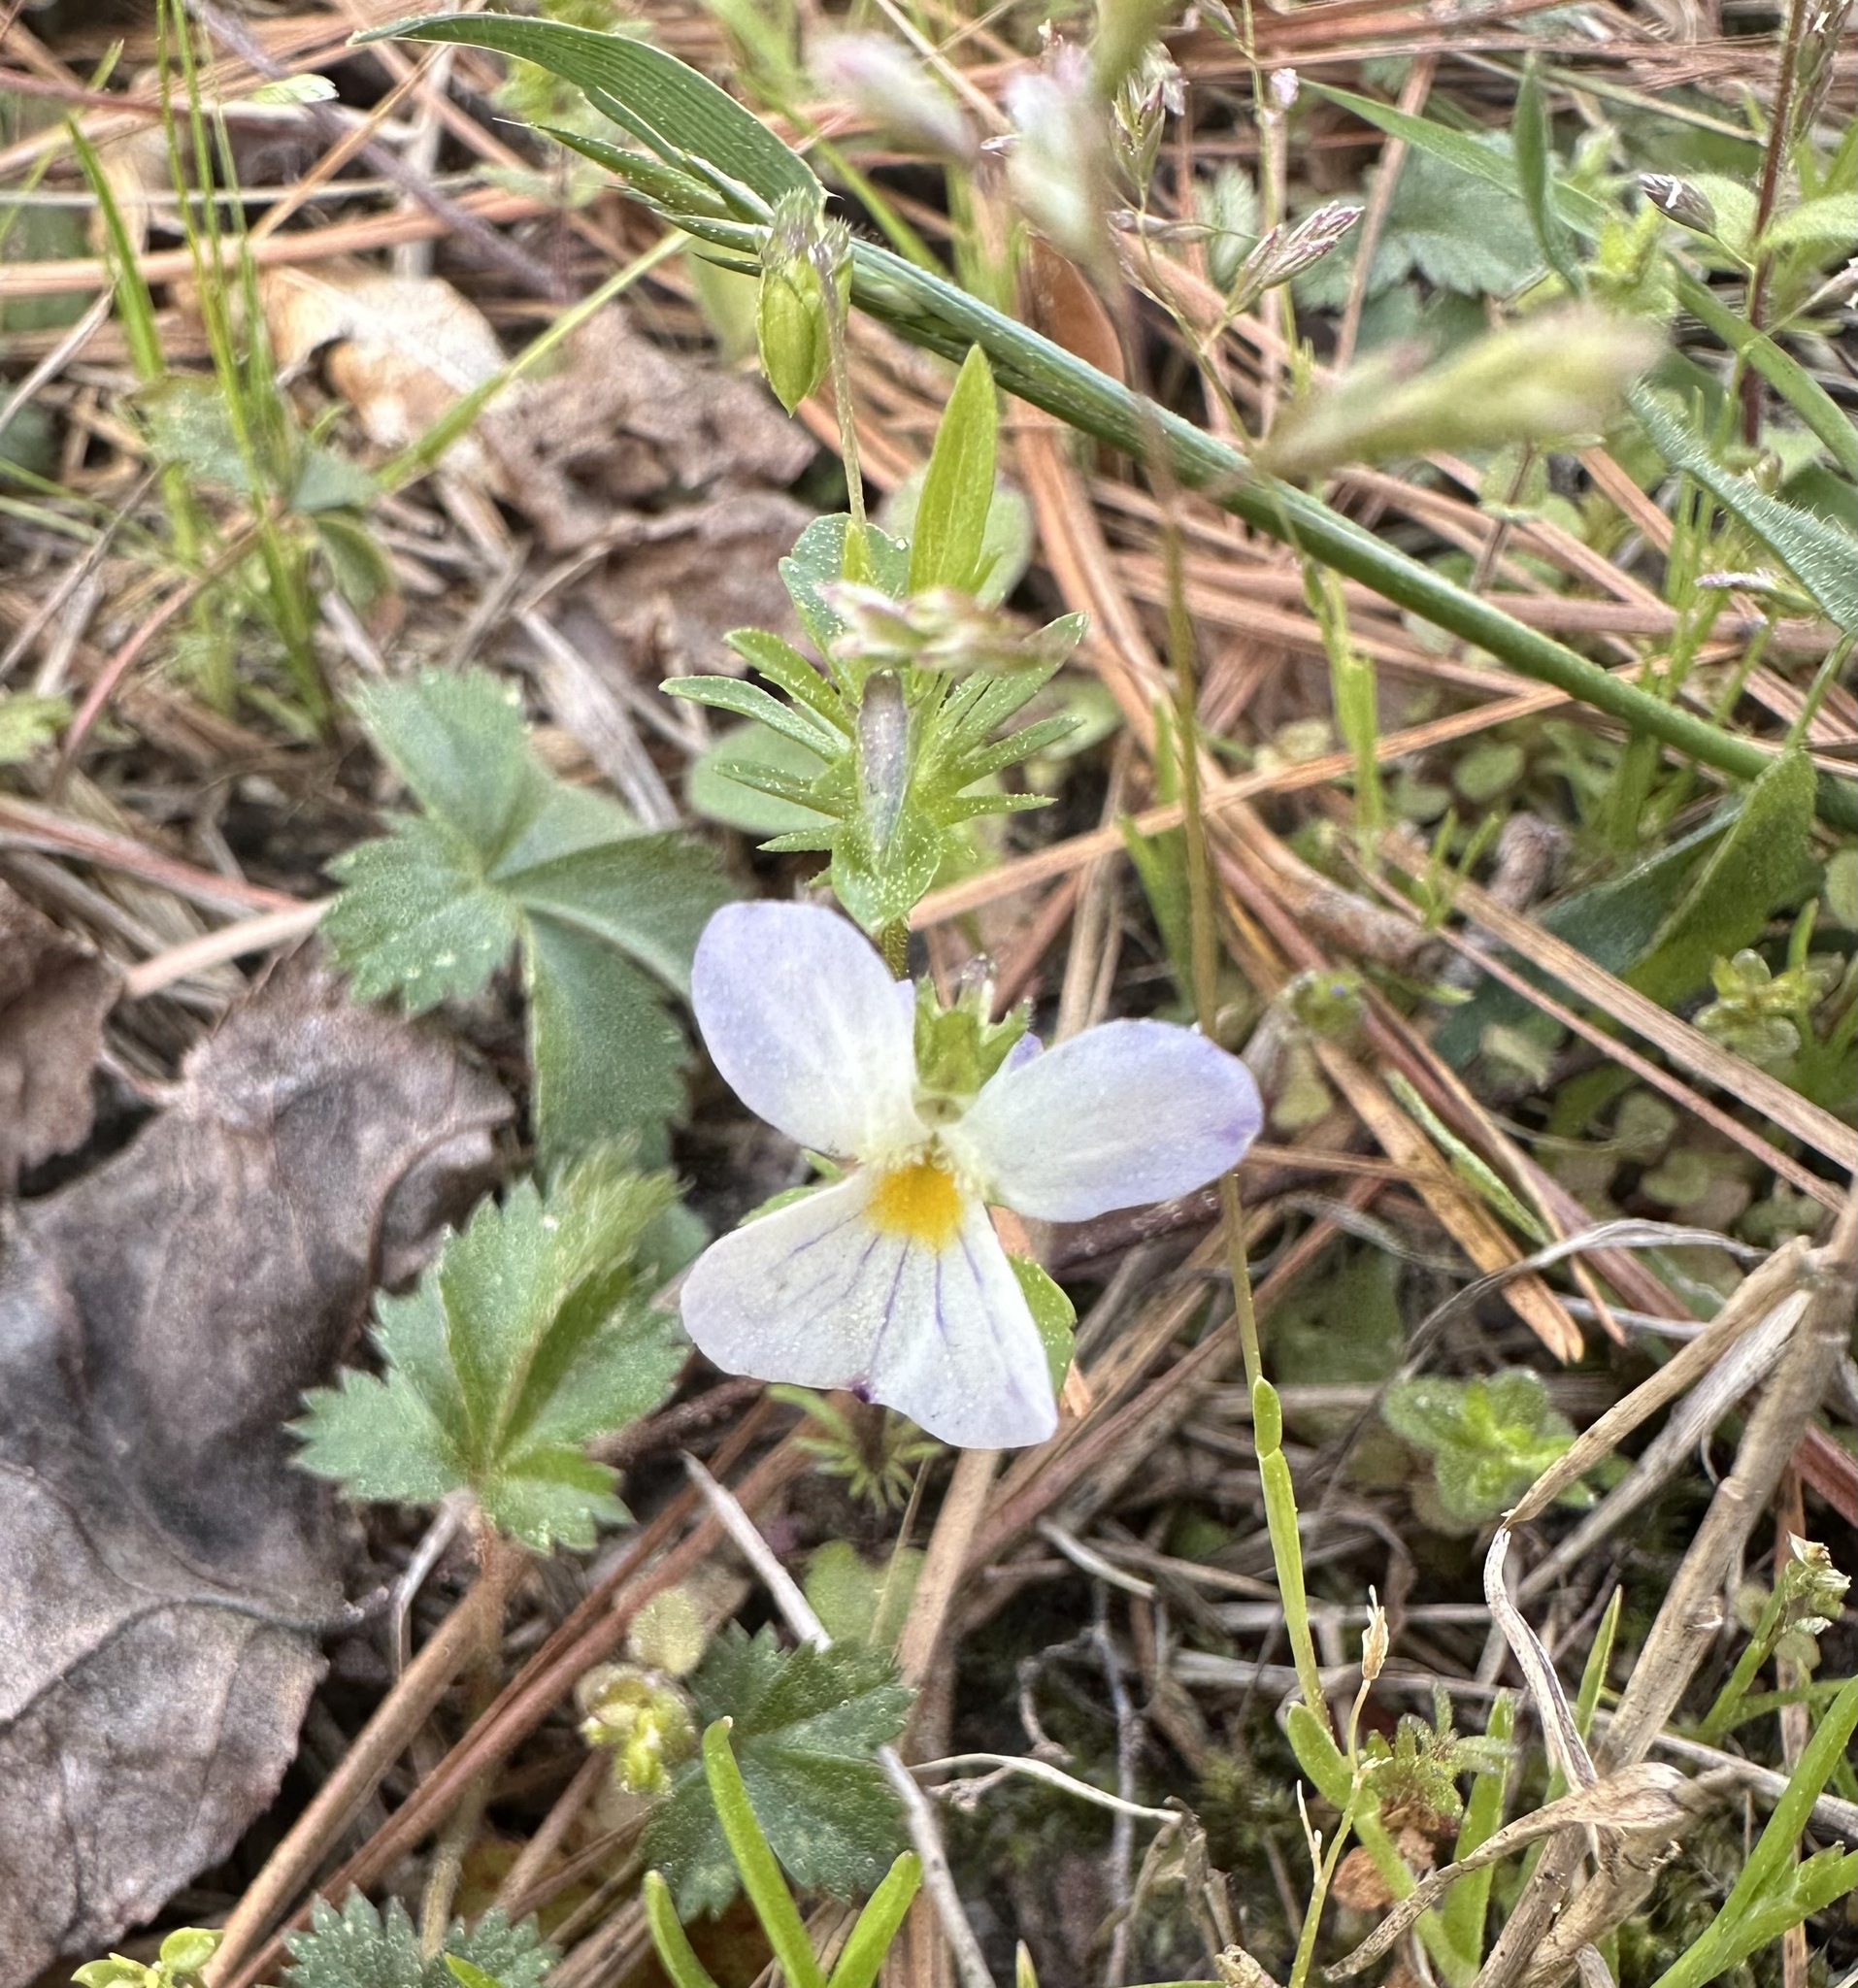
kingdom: Plantae
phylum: Tracheophyta
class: Magnoliopsida
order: Malpighiales
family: Violaceae
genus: Viola
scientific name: Viola rafinesquei
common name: American field pansy
